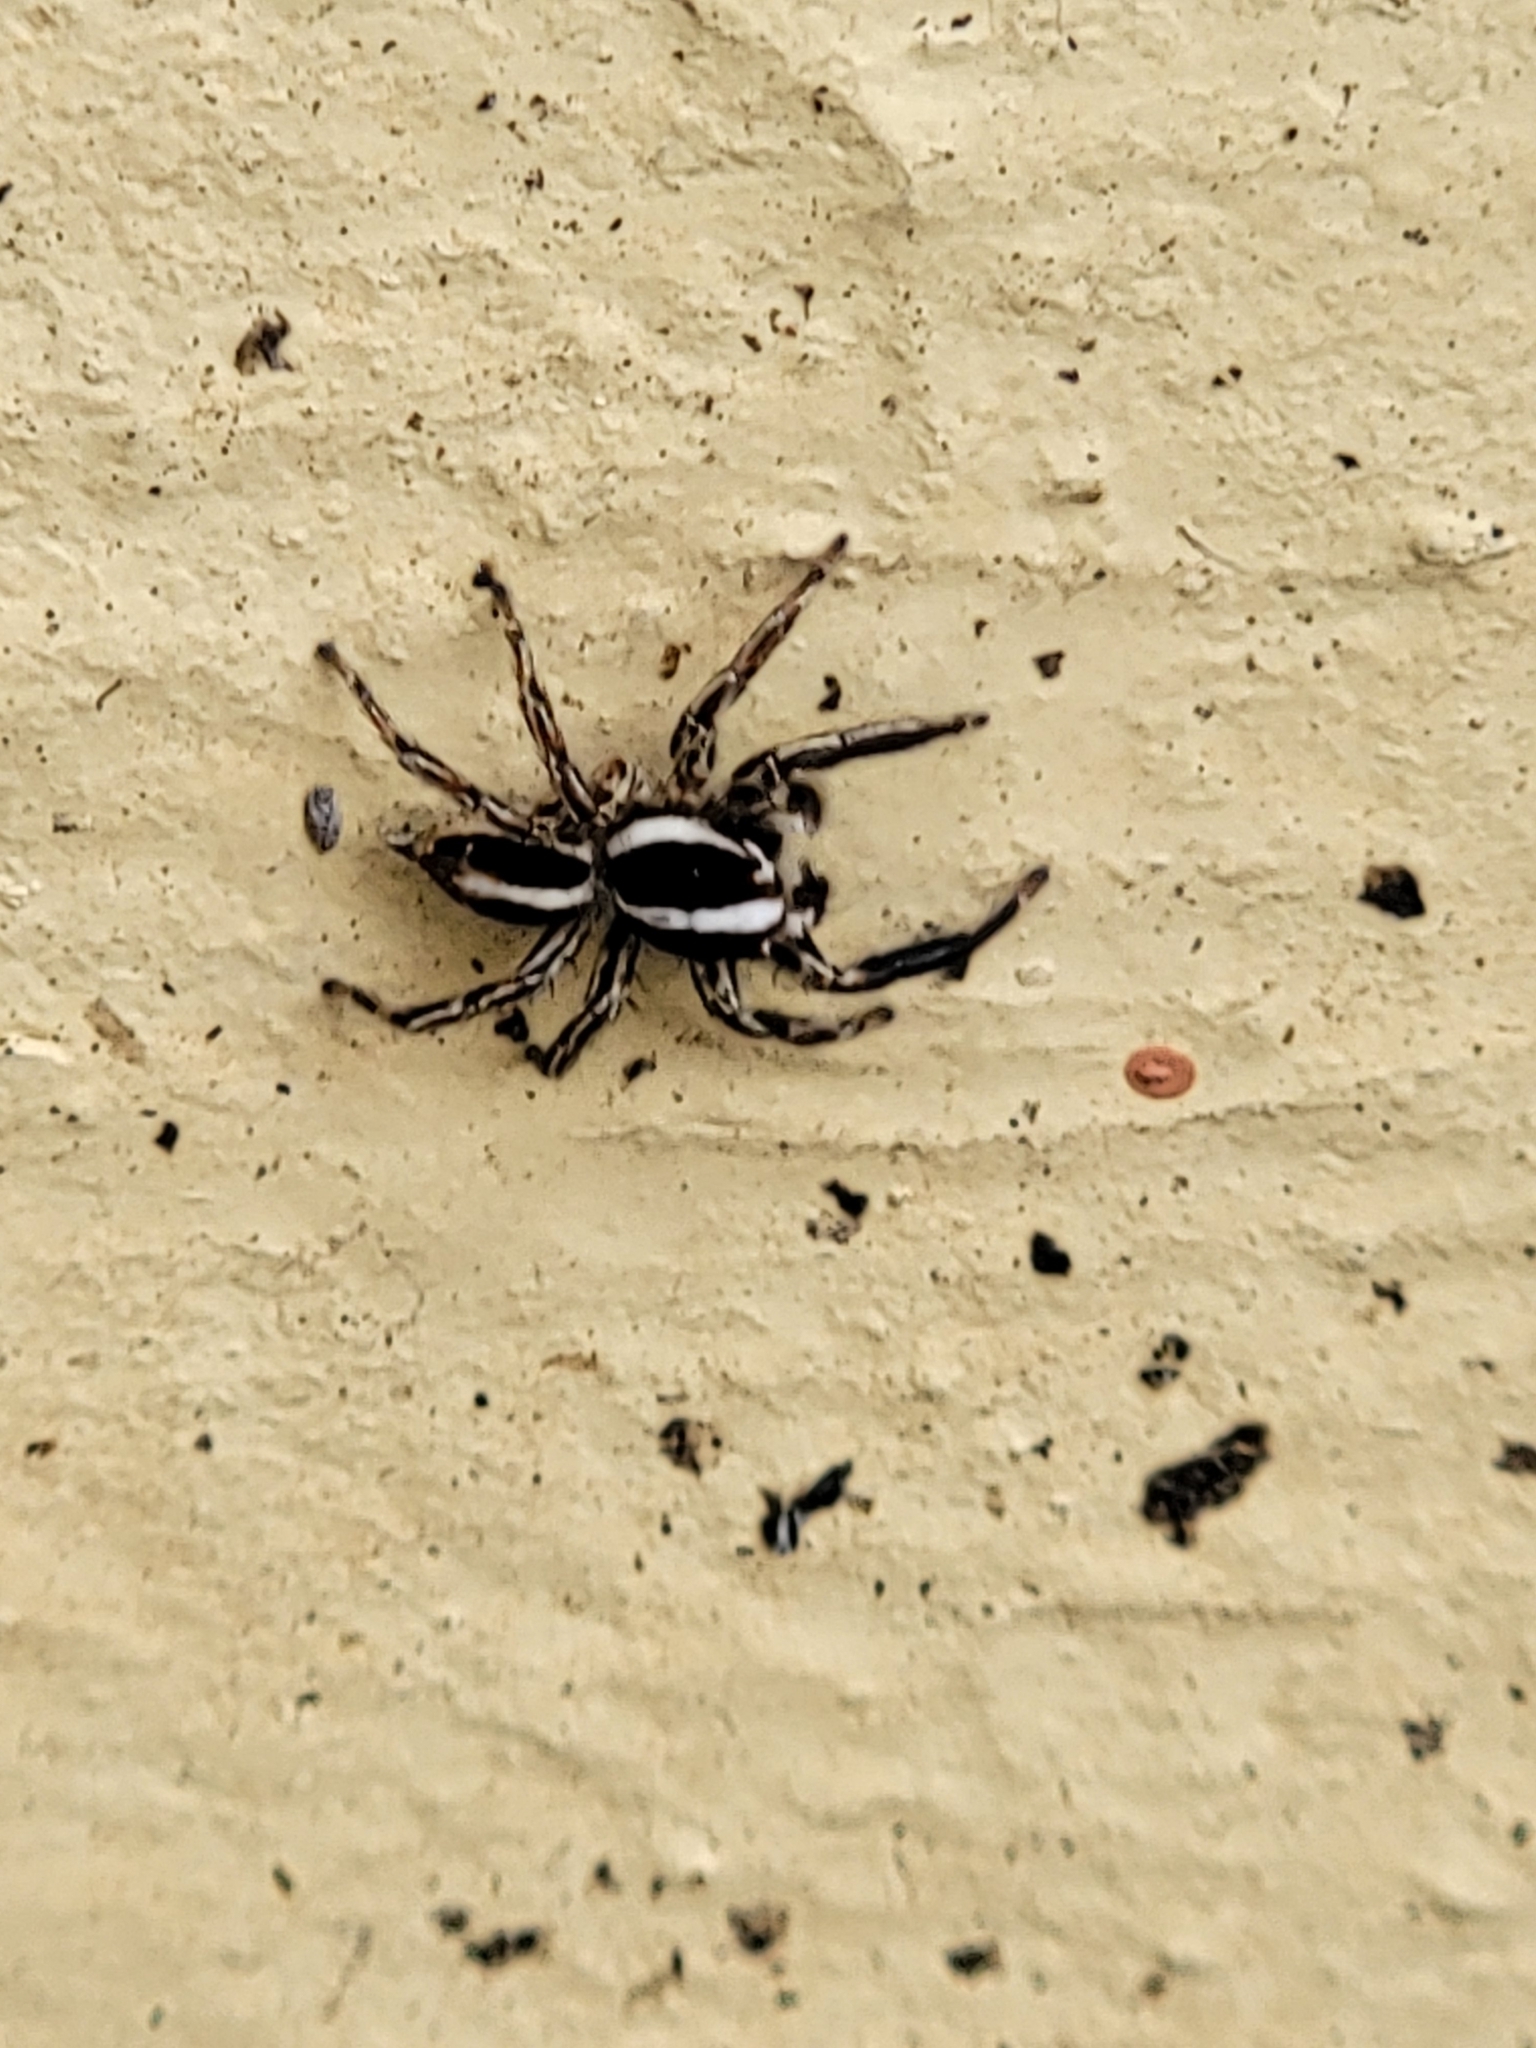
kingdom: Animalia
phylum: Arthropoda
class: Arachnida
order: Araneae
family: Salticidae
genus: Plexippus
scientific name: Plexippus paykulli
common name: Pantropical jumper
